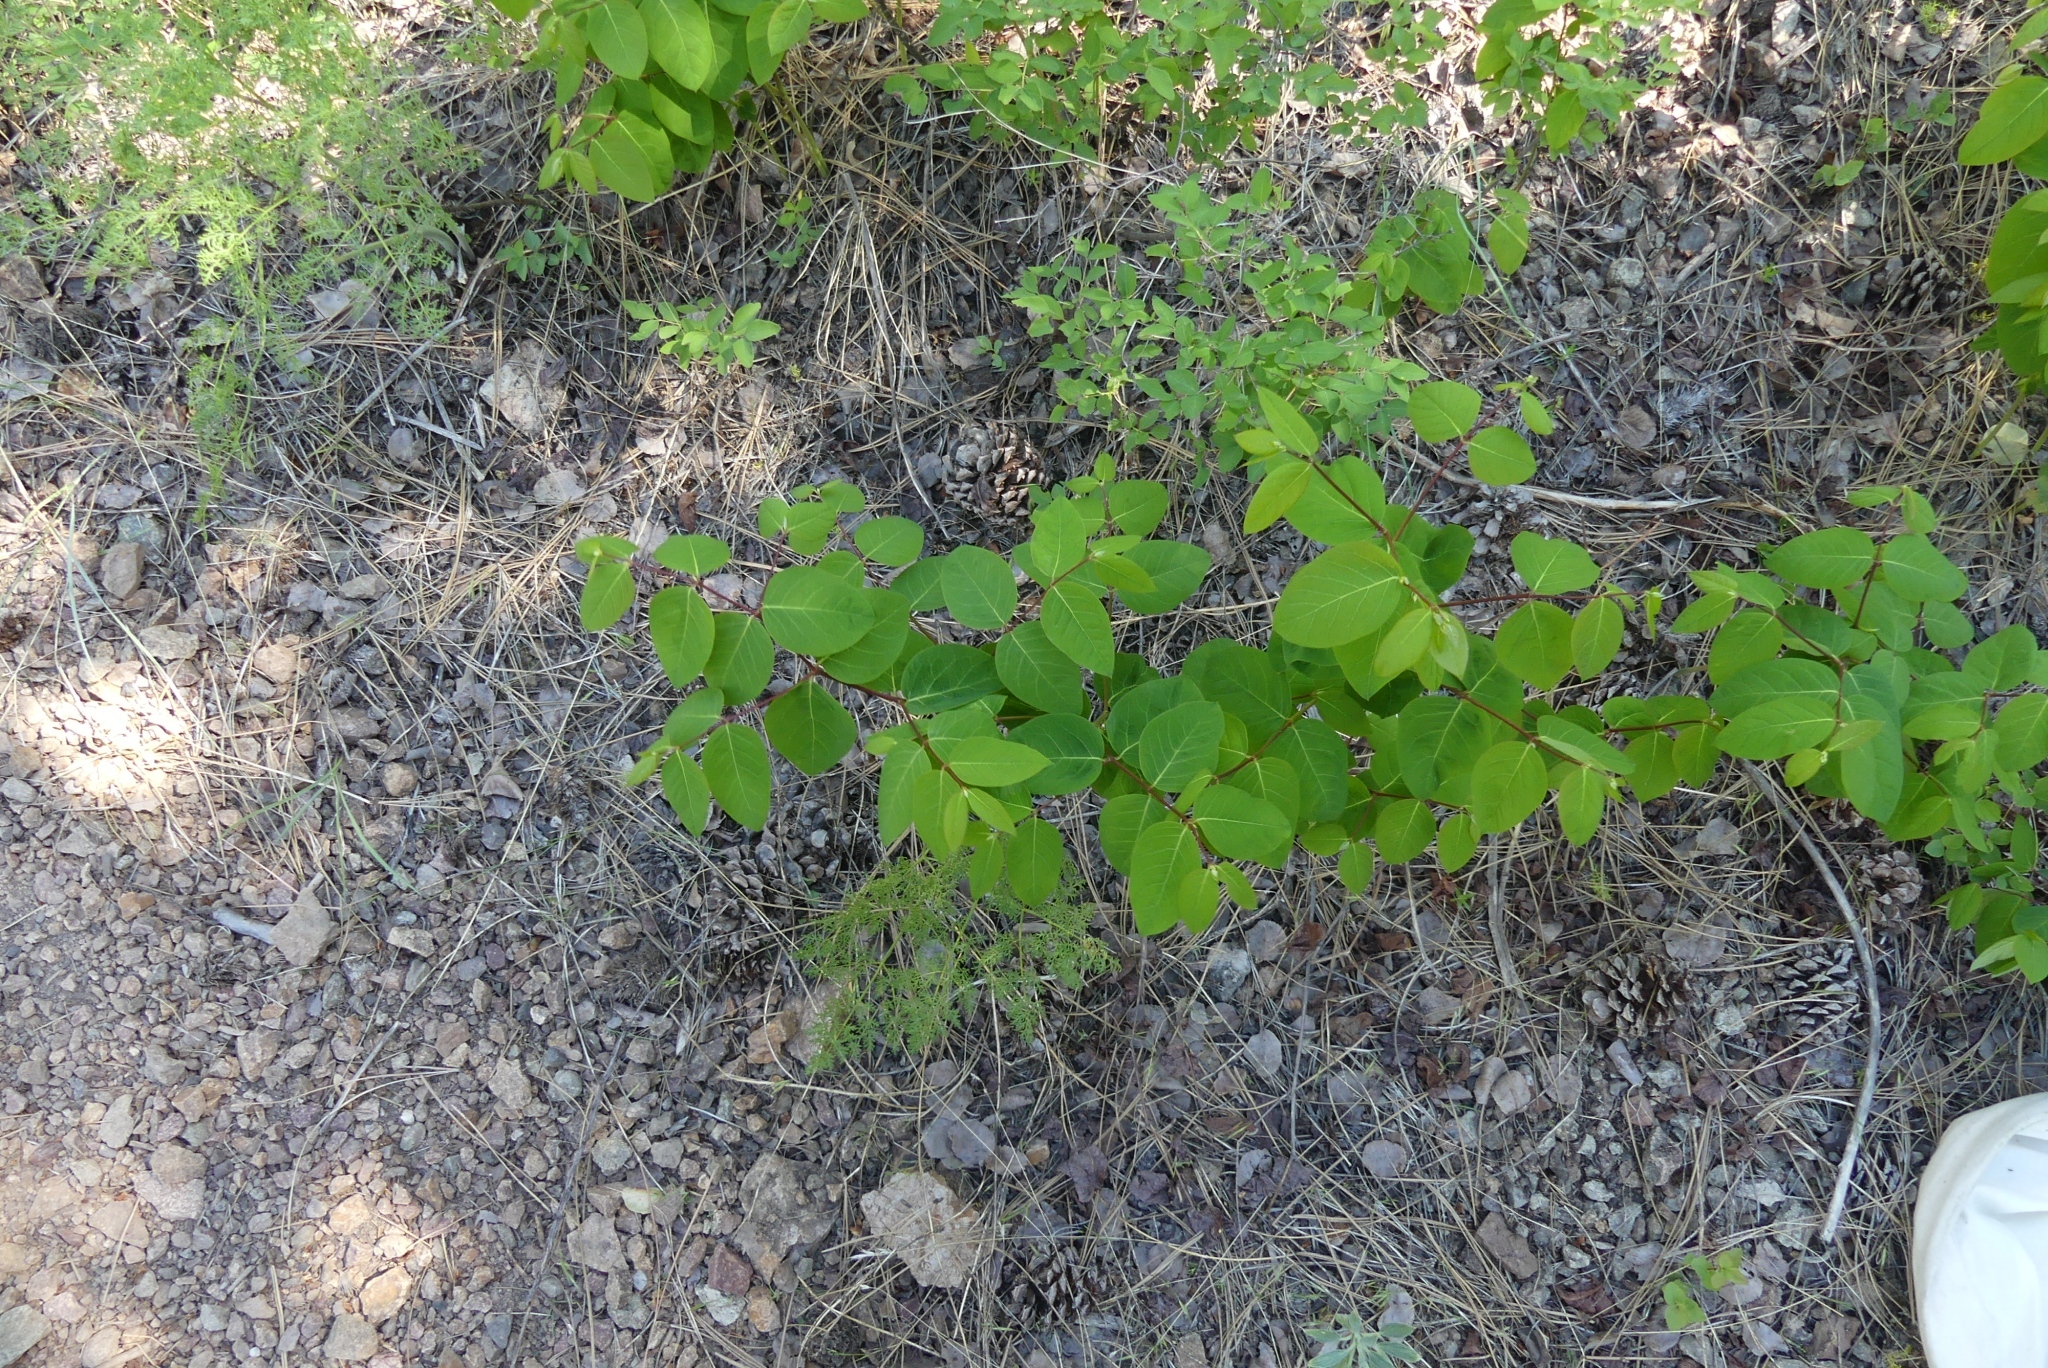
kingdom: Plantae
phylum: Tracheophyta
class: Magnoliopsida
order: Gentianales
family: Apocynaceae
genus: Apocynum
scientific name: Apocynum androsaemifolium
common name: Spreading dogbane
